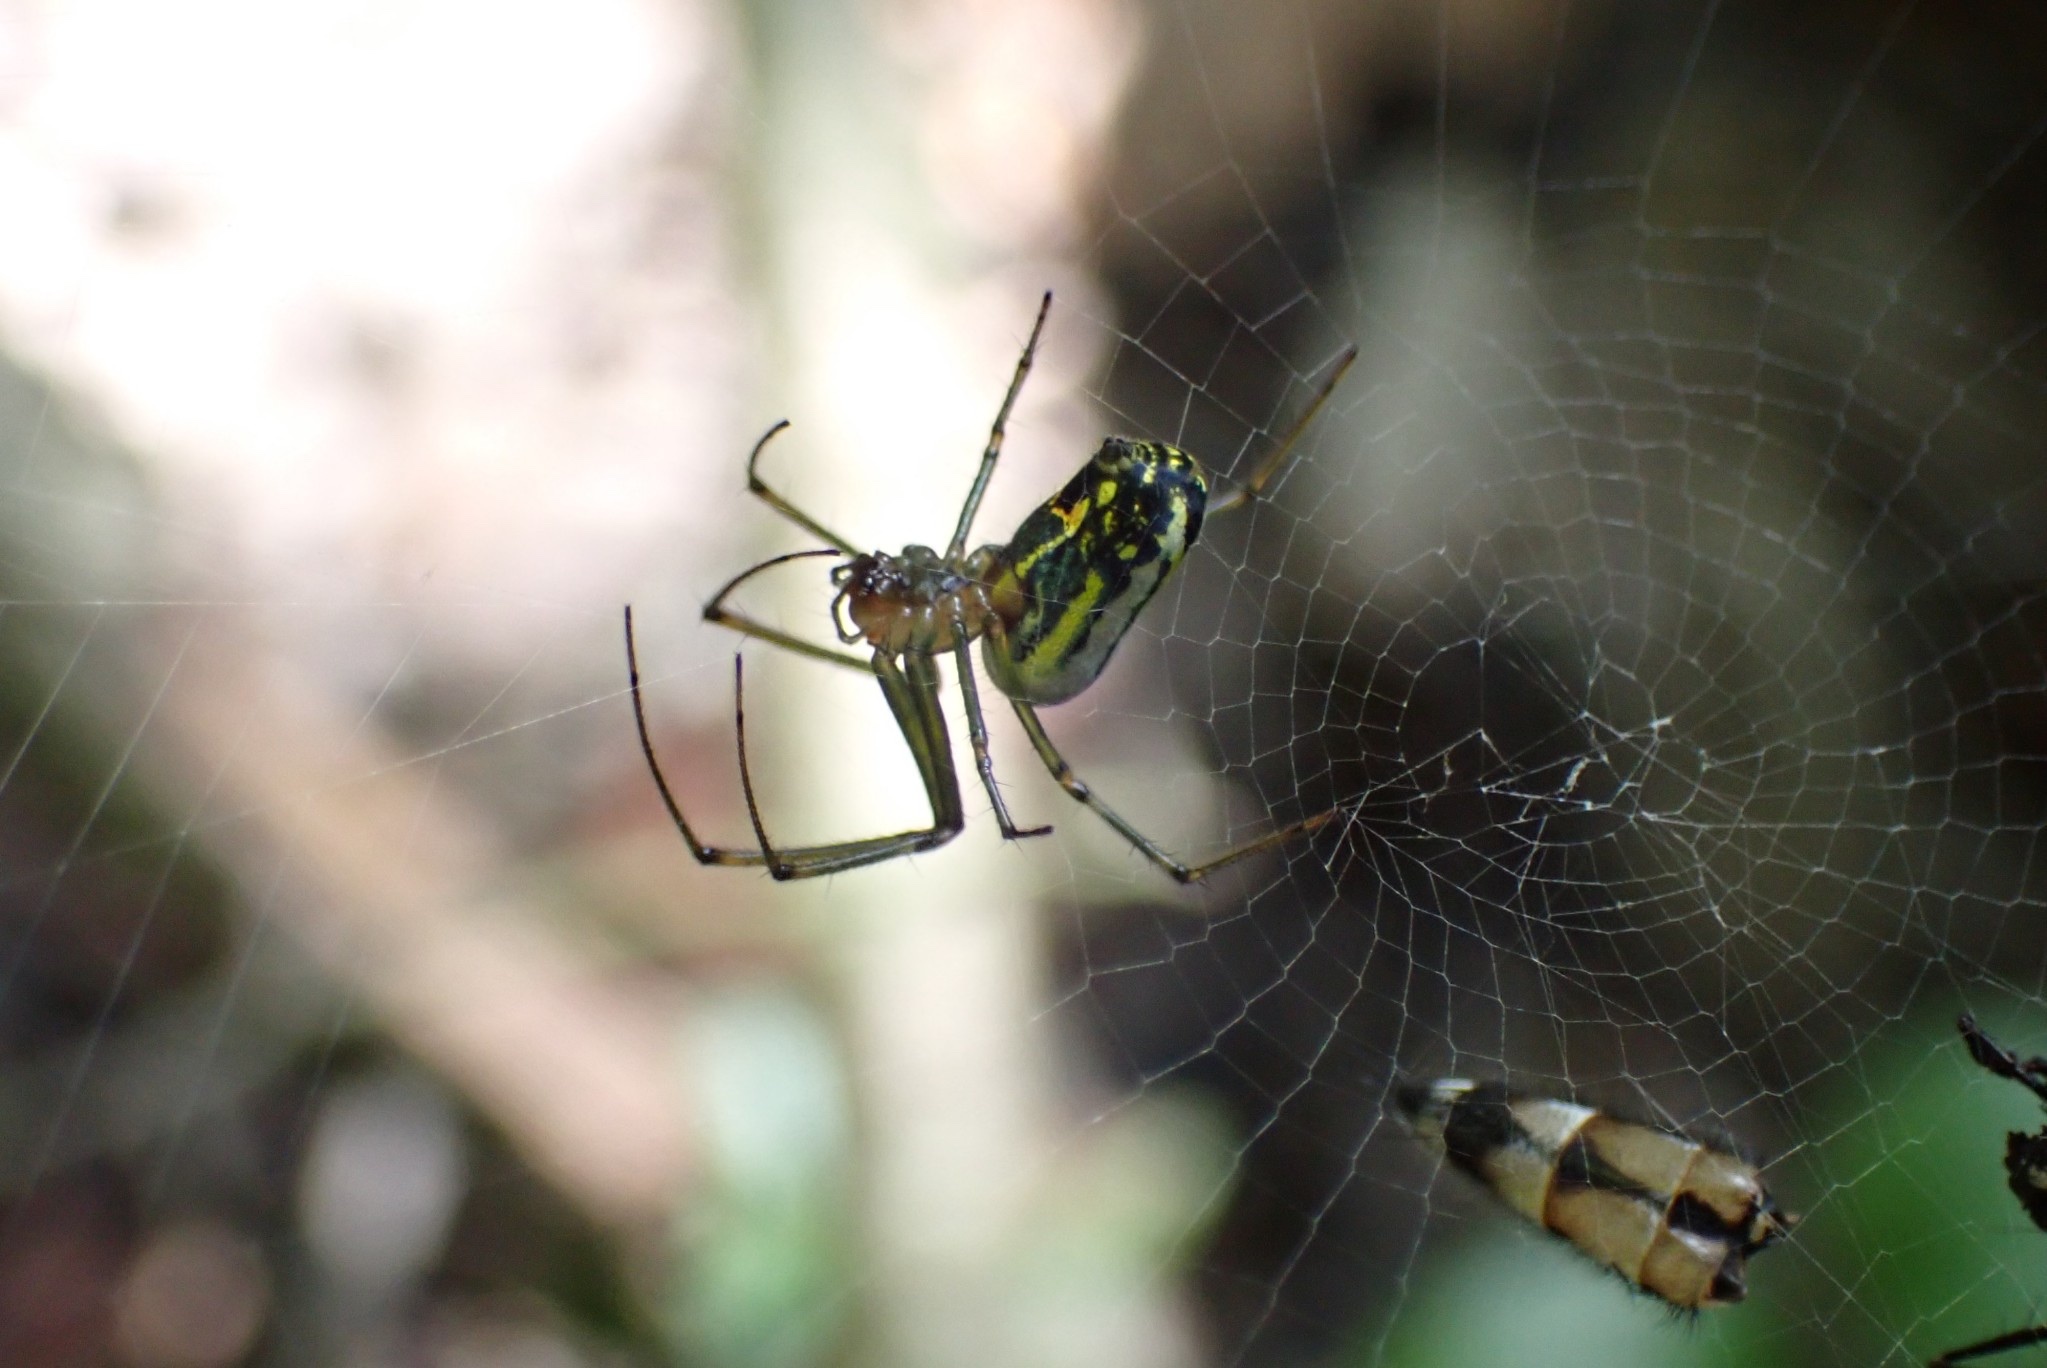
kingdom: Animalia
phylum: Arthropoda
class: Arachnida
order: Araneae
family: Tetragnathidae
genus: Leucauge
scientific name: Leucauge venusta
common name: Longjawed orb weavers
